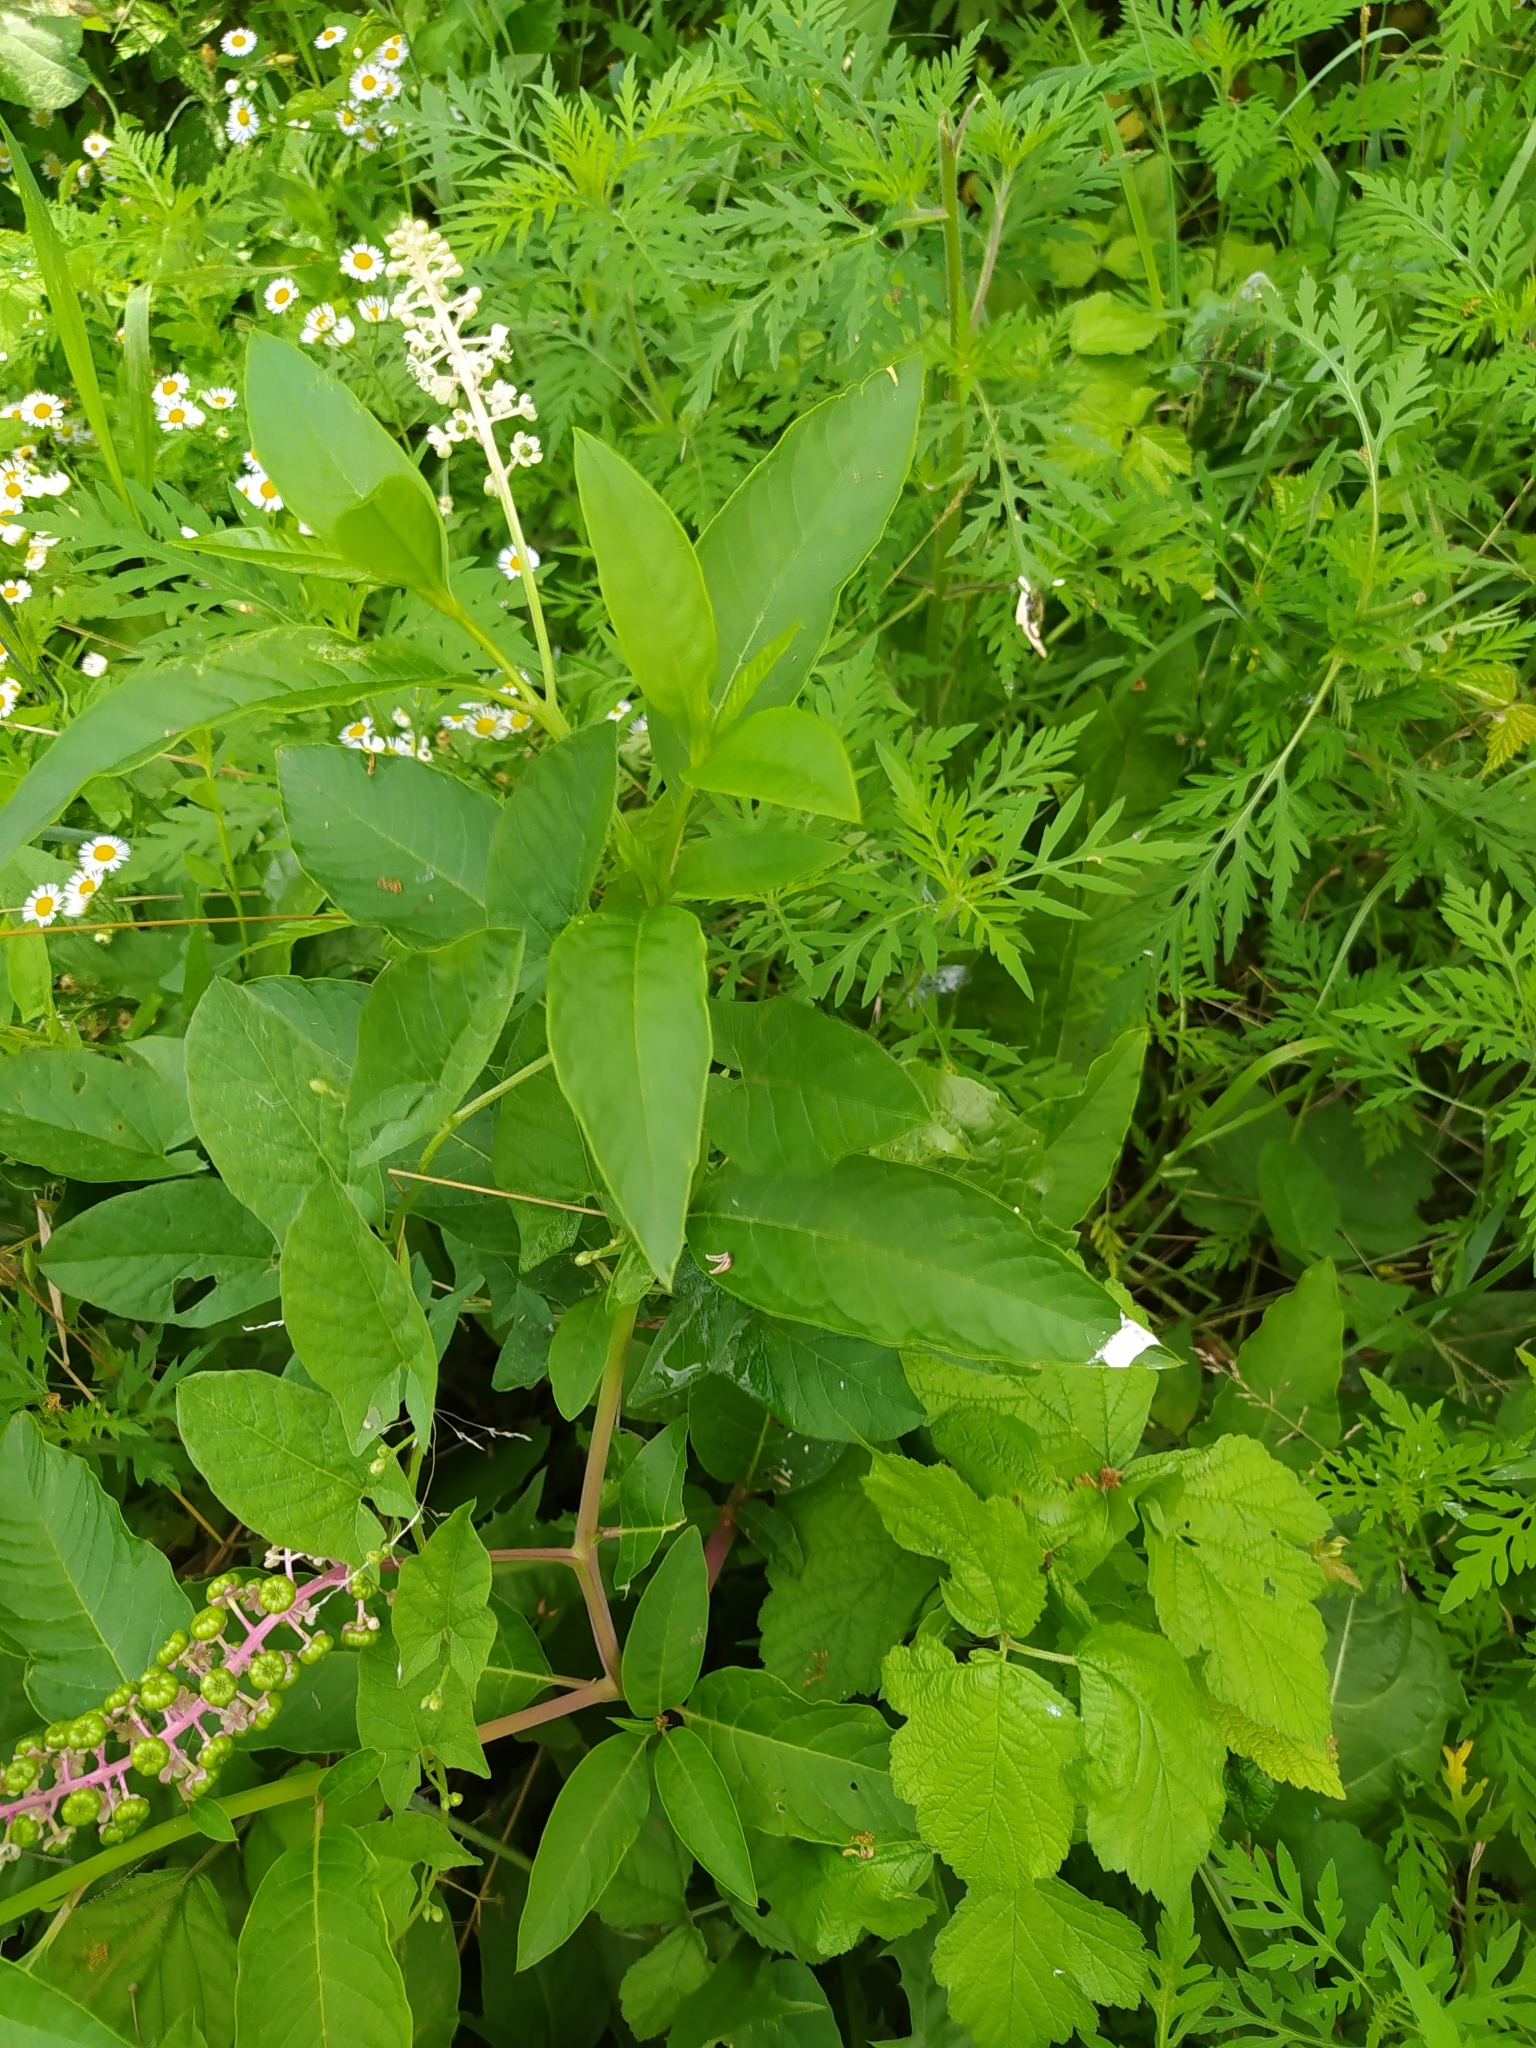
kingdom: Plantae
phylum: Tracheophyta
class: Magnoliopsida
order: Caryophyllales
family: Phytolaccaceae
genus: Phytolacca
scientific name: Phytolacca americana
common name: American pokeweed
